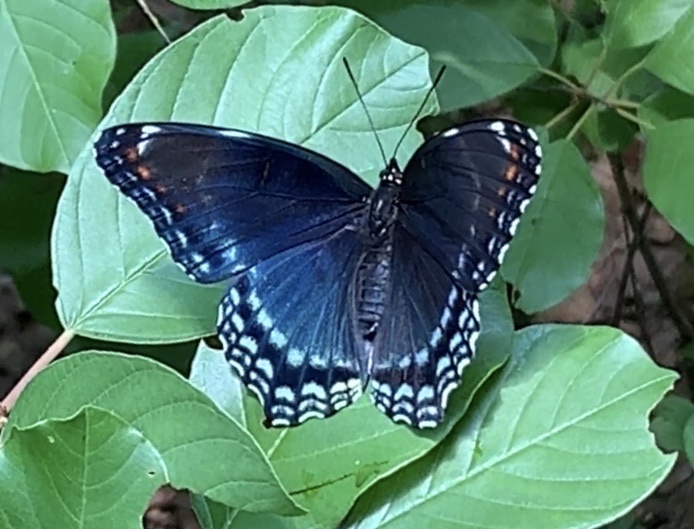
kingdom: Animalia
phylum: Arthropoda
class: Insecta
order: Lepidoptera
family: Nymphalidae
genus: Limenitis
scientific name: Limenitis
